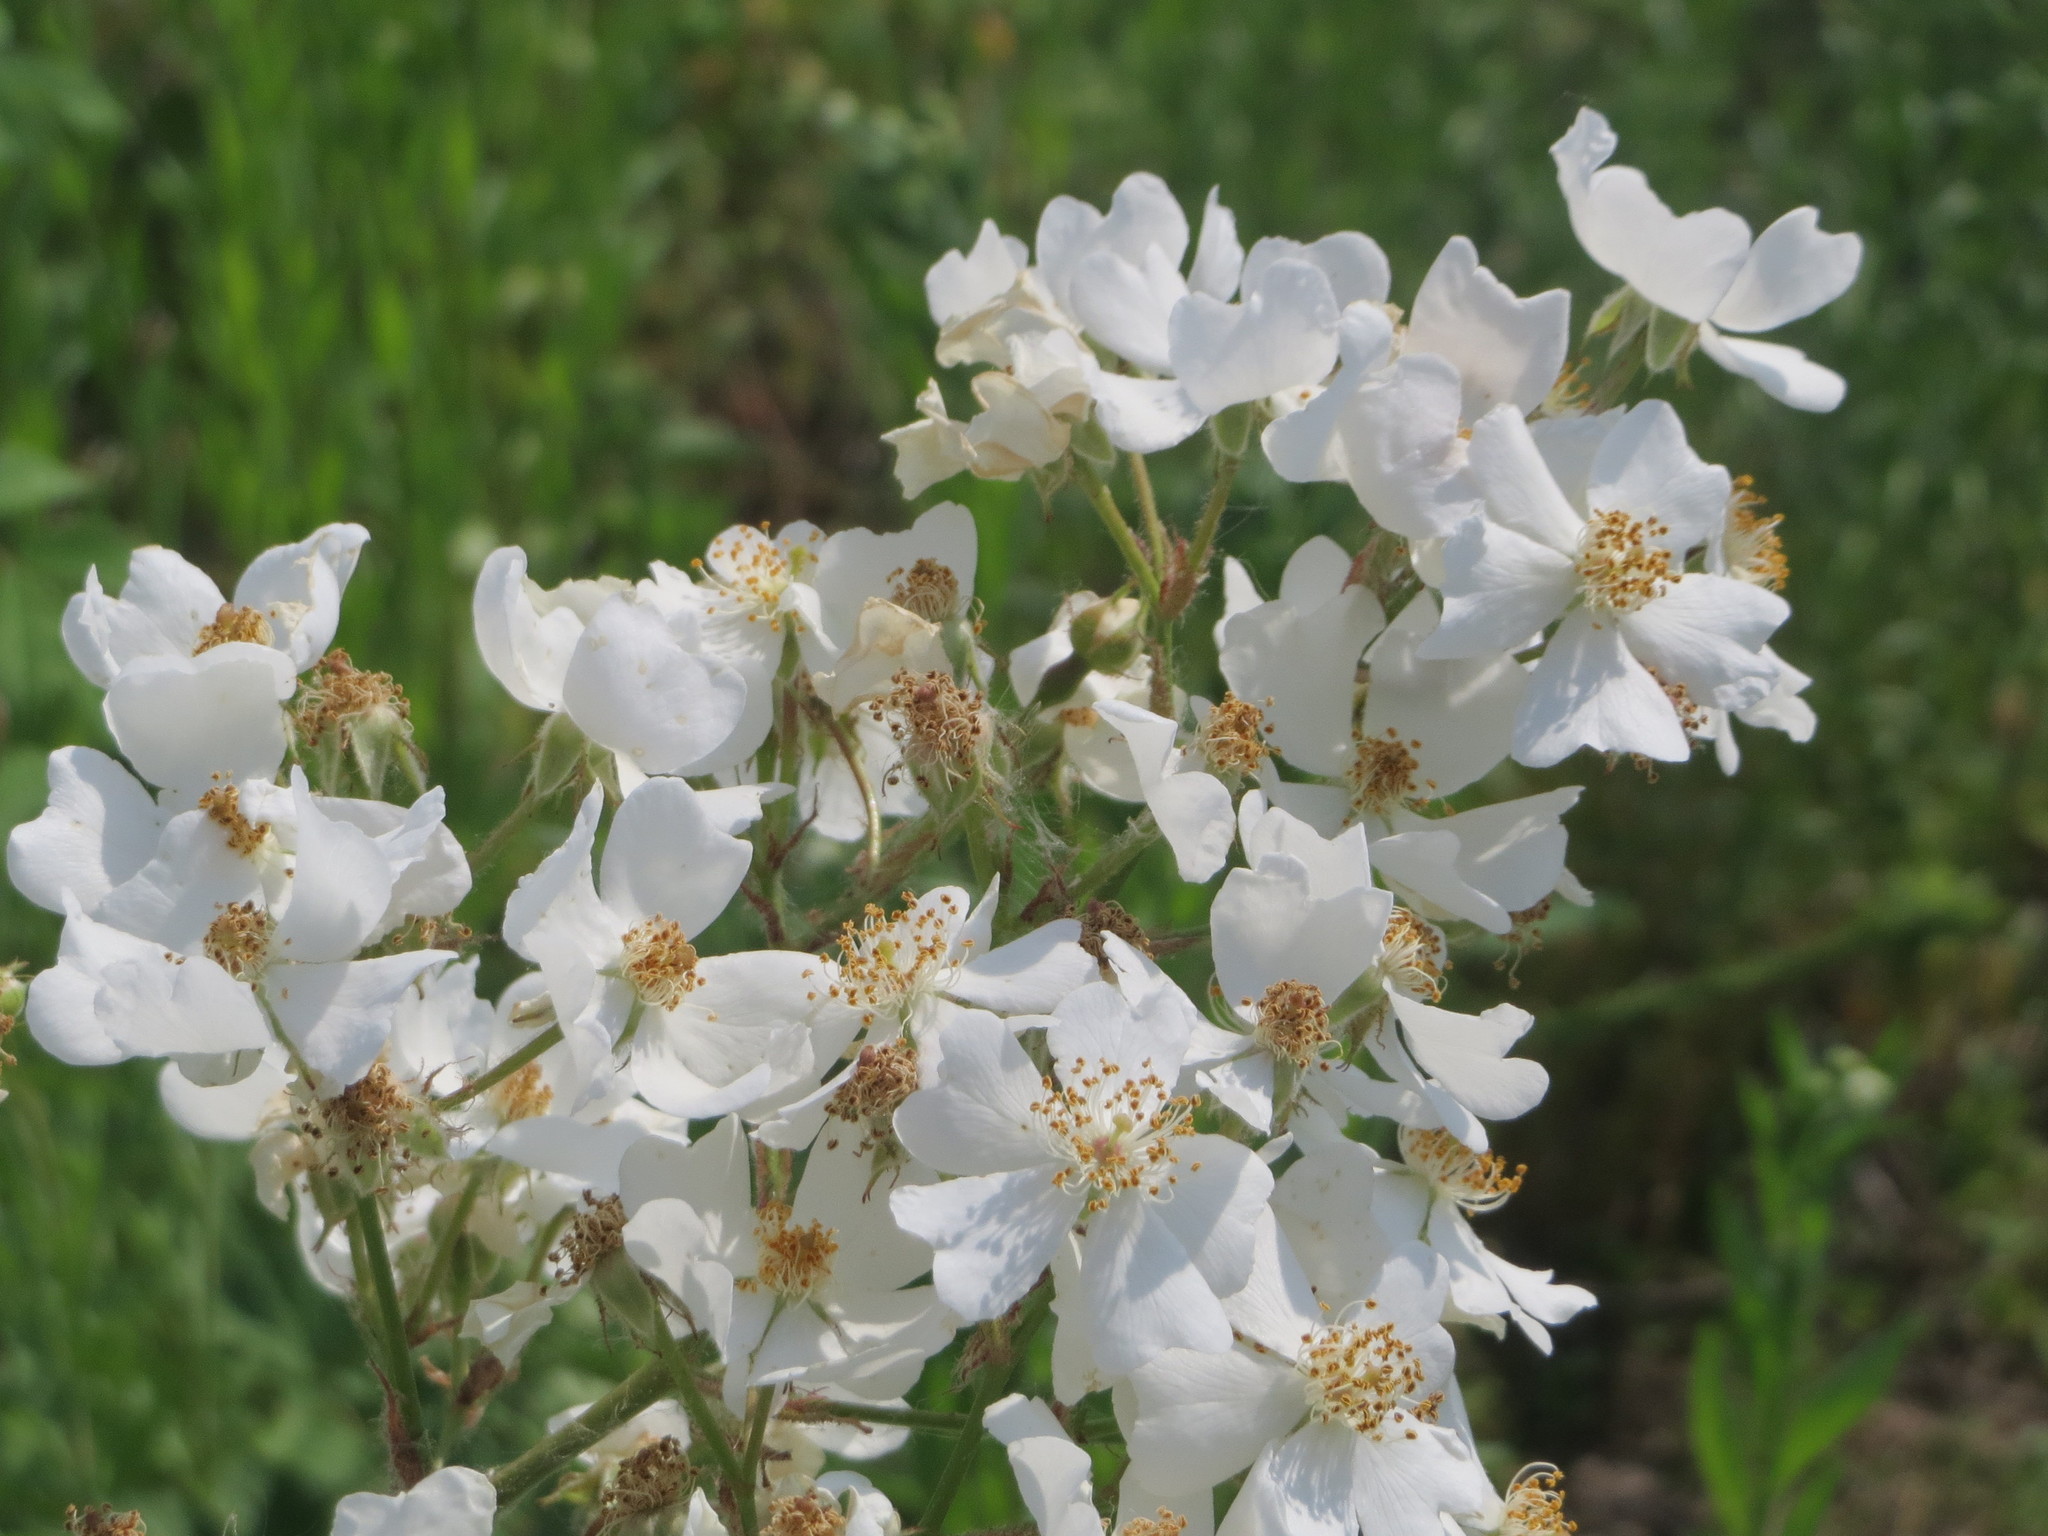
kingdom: Plantae
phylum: Tracheophyta
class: Magnoliopsida
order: Rosales
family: Rosaceae
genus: Rosa
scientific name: Rosa multiflora
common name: Multiflora rose
